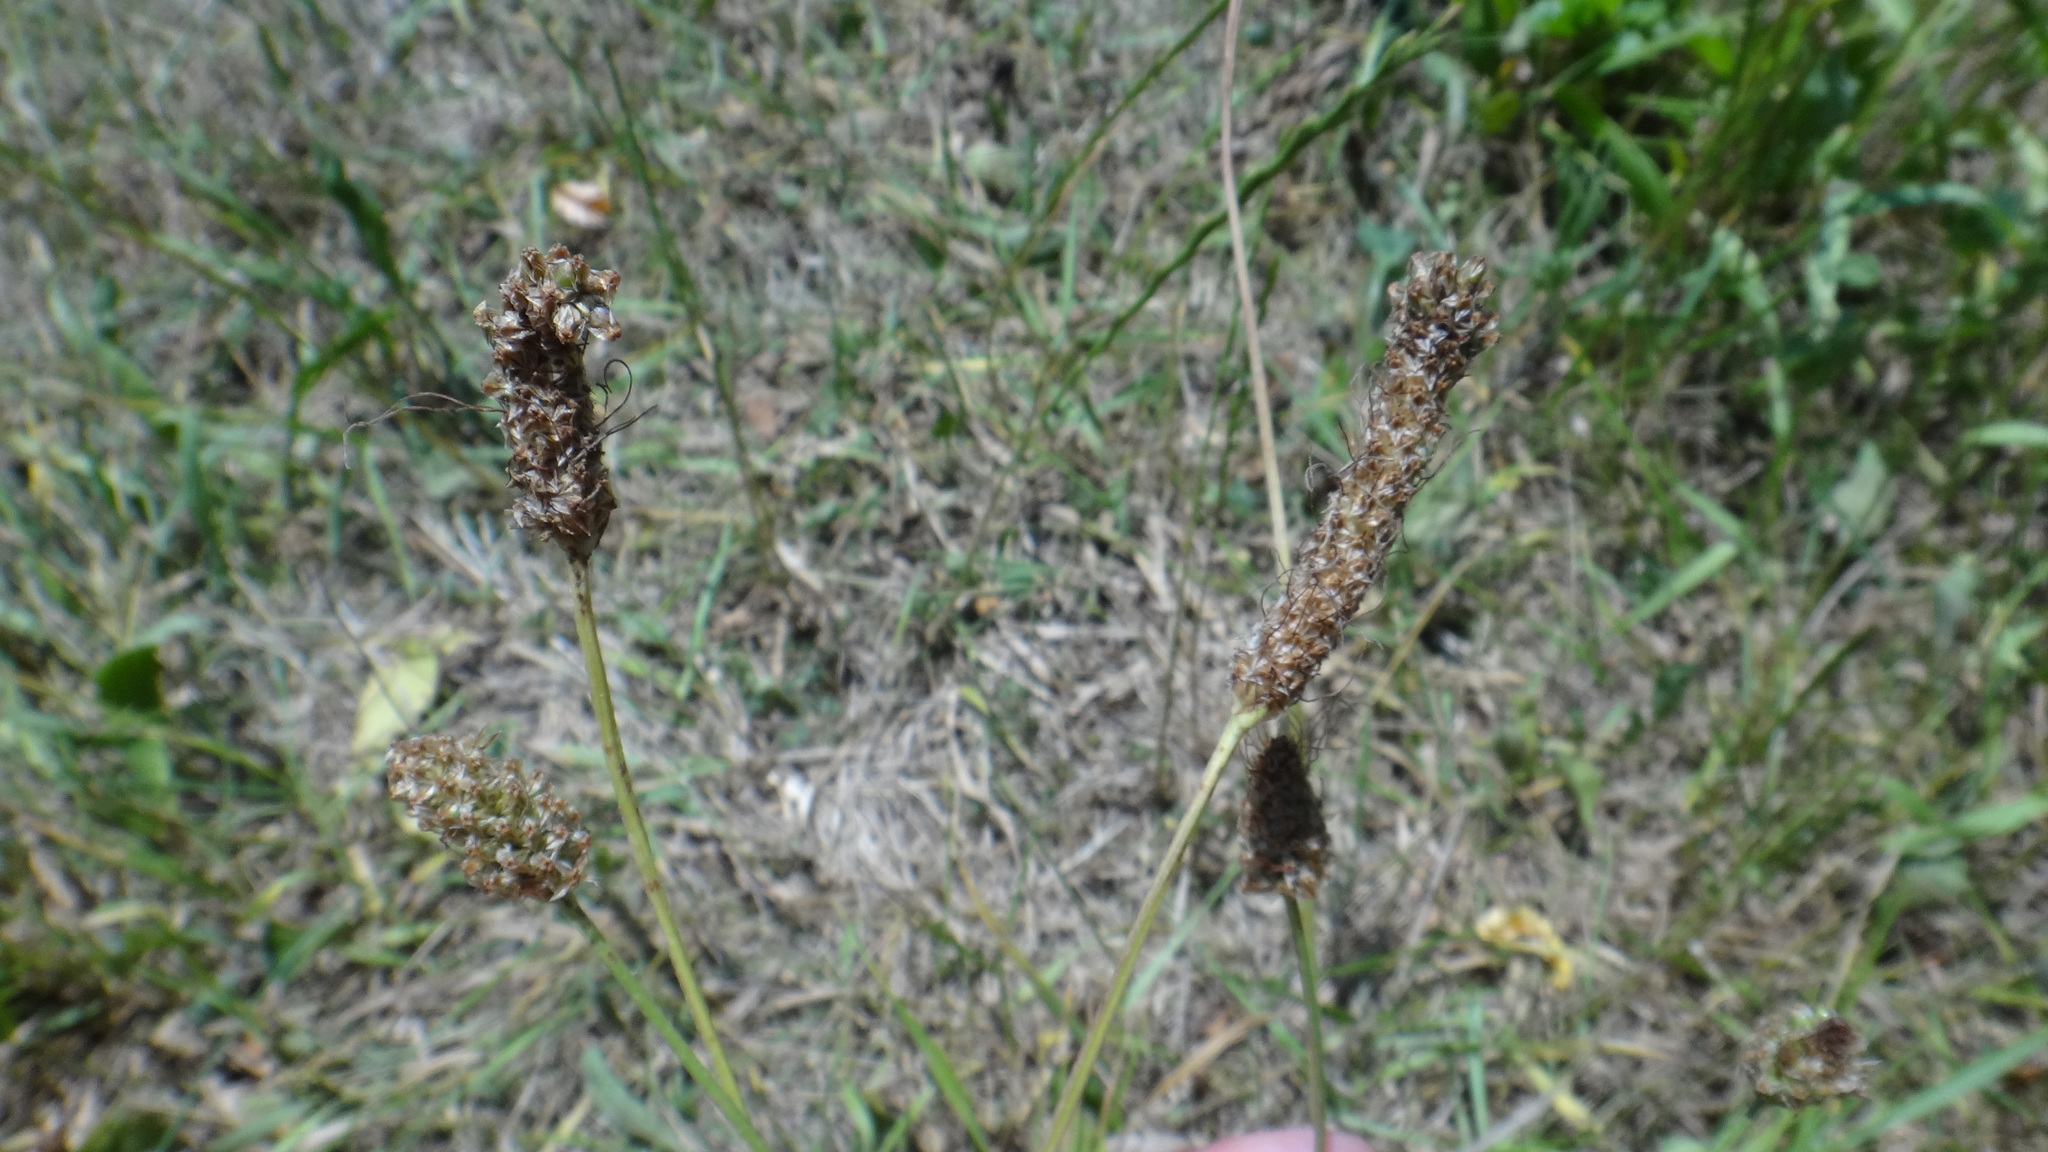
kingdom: Plantae
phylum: Tracheophyta
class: Magnoliopsida
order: Lamiales
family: Plantaginaceae
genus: Plantago
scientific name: Plantago lanceolata
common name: Ribwort plantain
